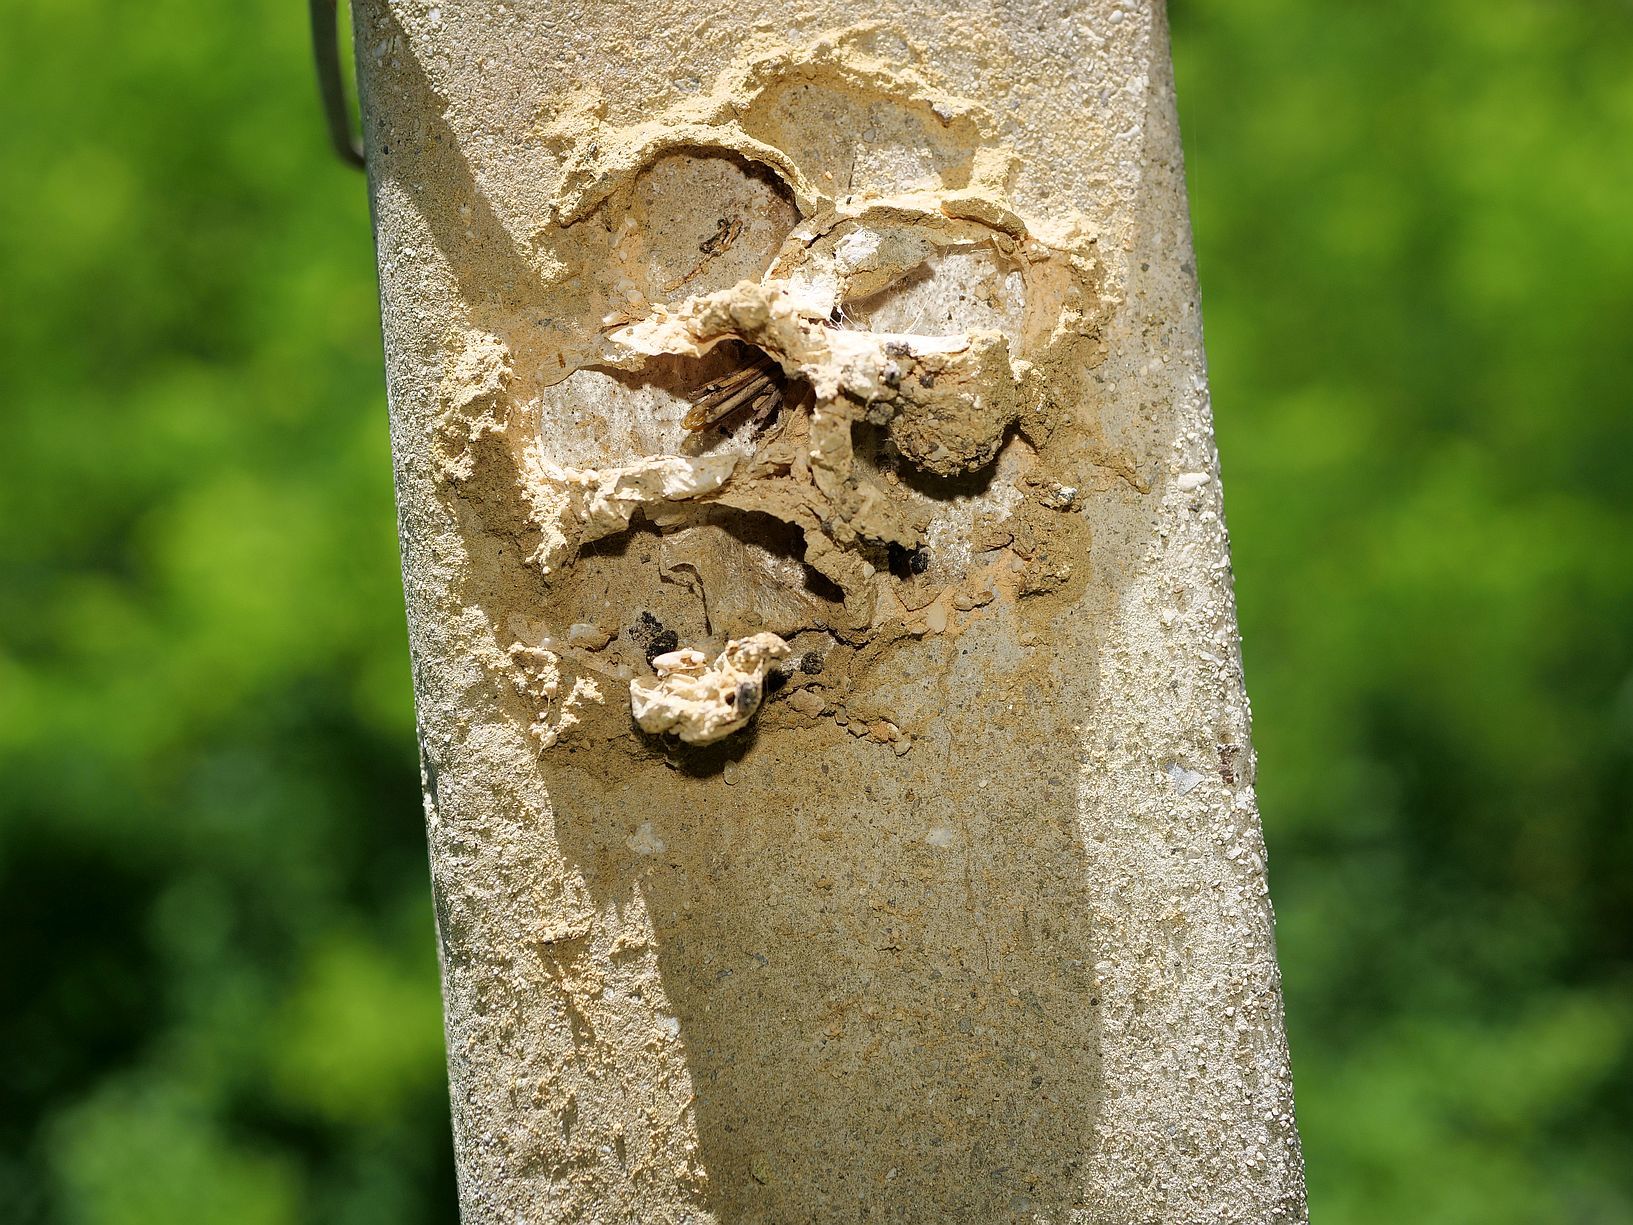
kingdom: Animalia
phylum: Arthropoda
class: Insecta
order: Hymenoptera
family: Eumenidae
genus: Delta
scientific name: Delta unguiculatum
